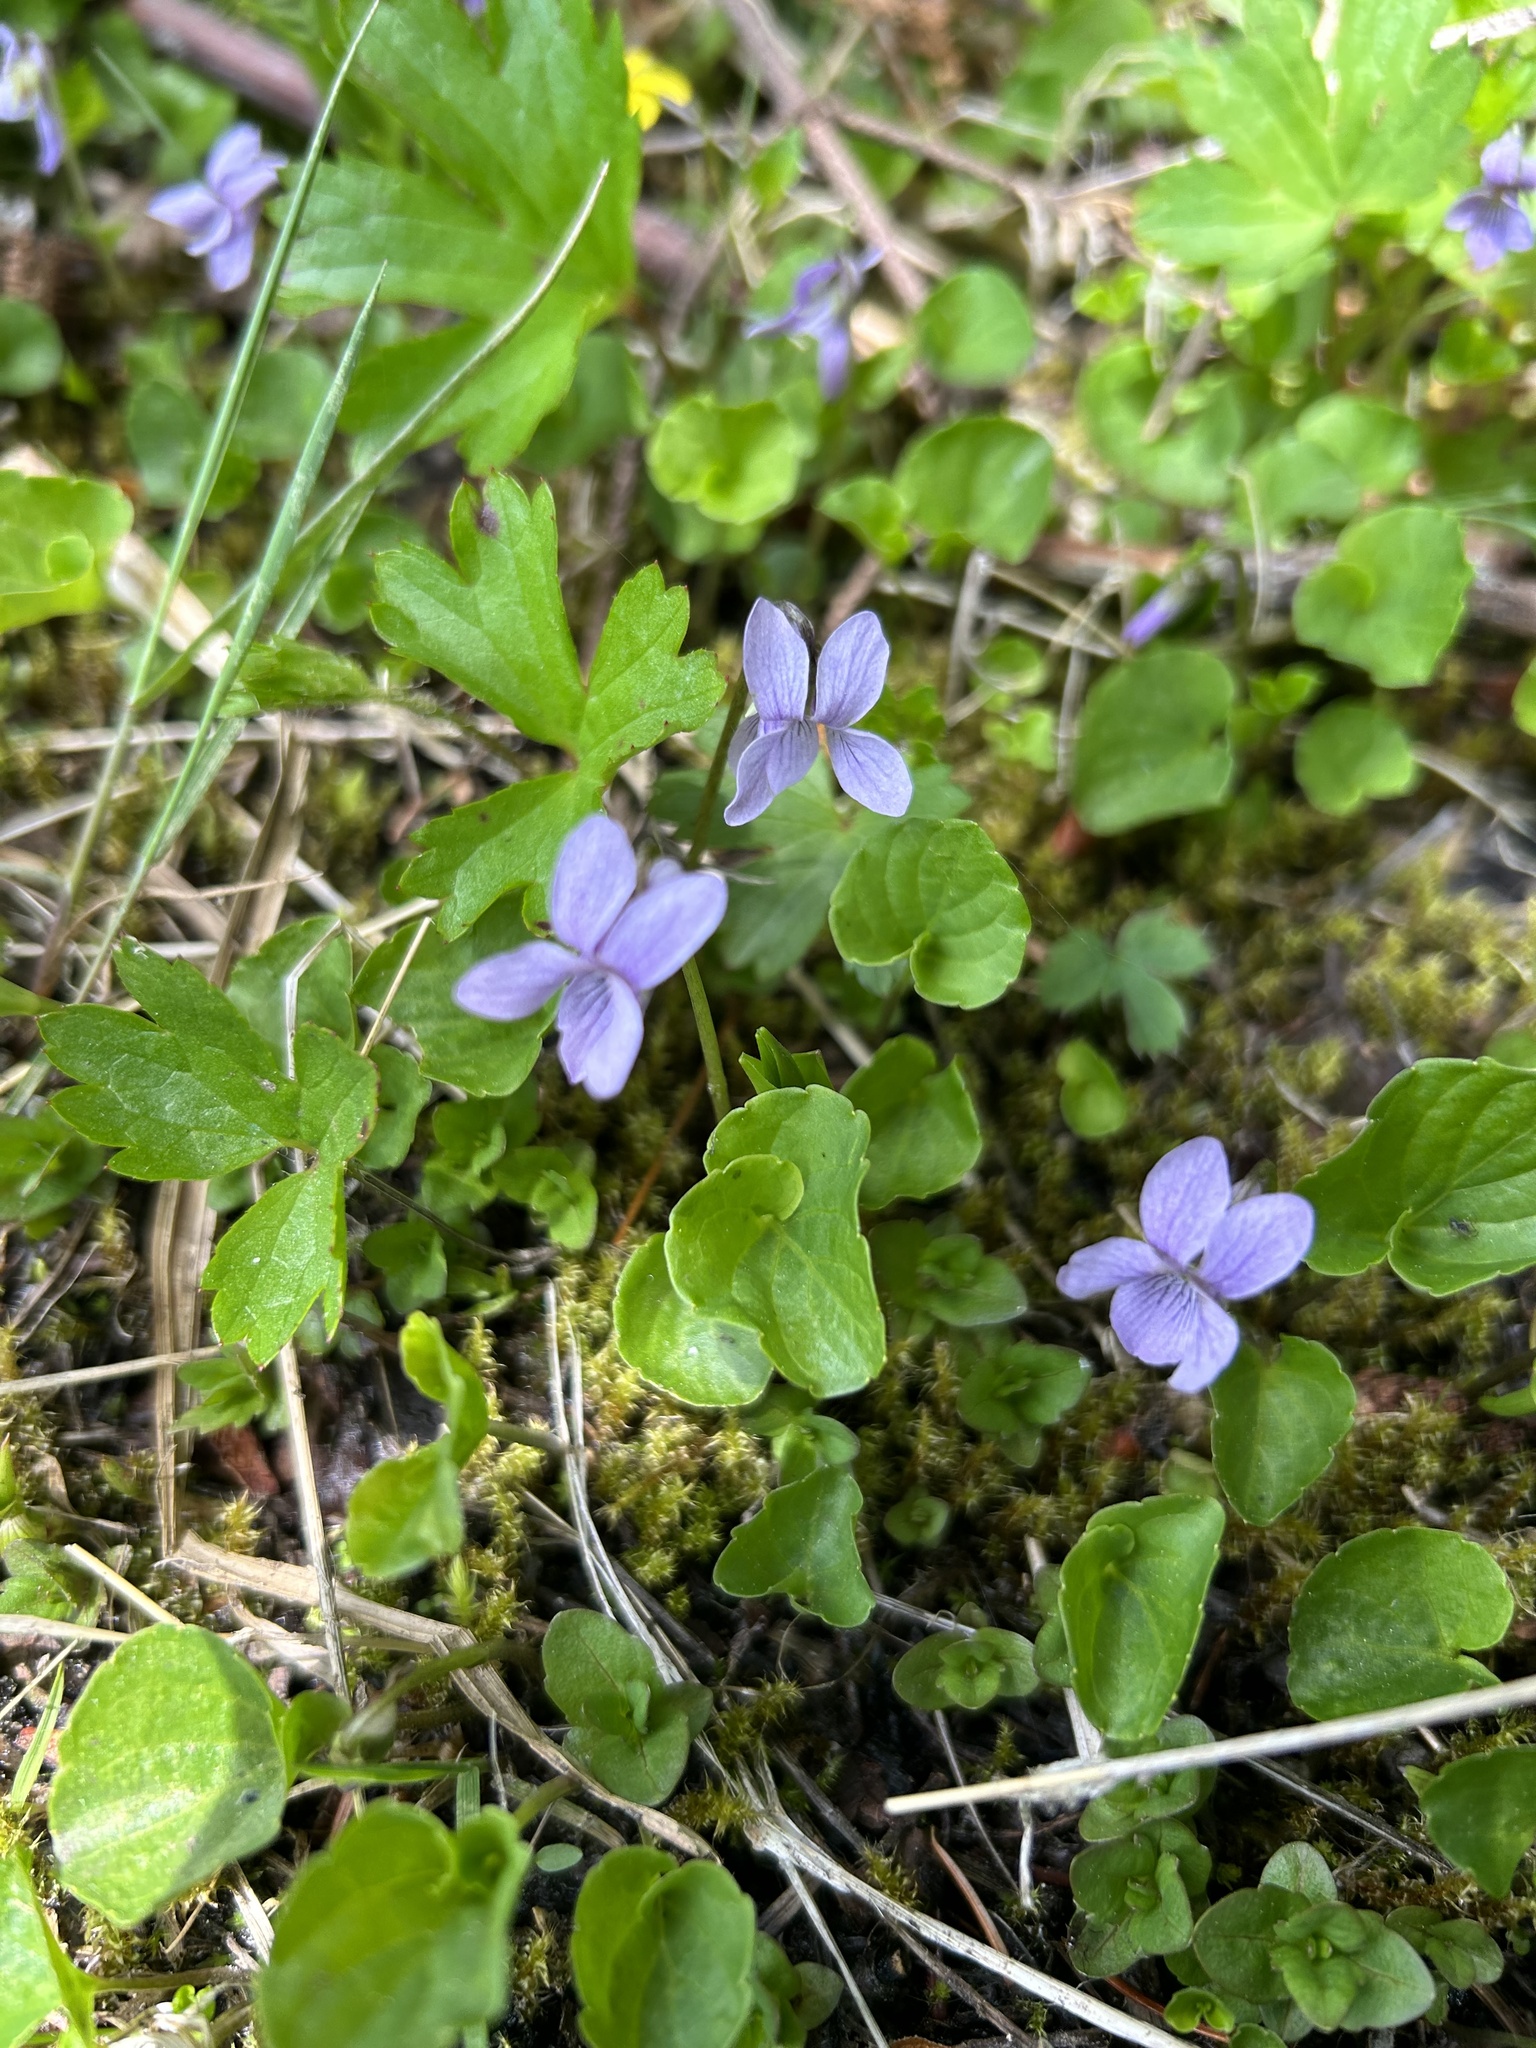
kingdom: Plantae
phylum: Tracheophyta
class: Magnoliopsida
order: Malpighiales
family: Violaceae
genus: Viola
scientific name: Viola palustris
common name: Marsh violet
